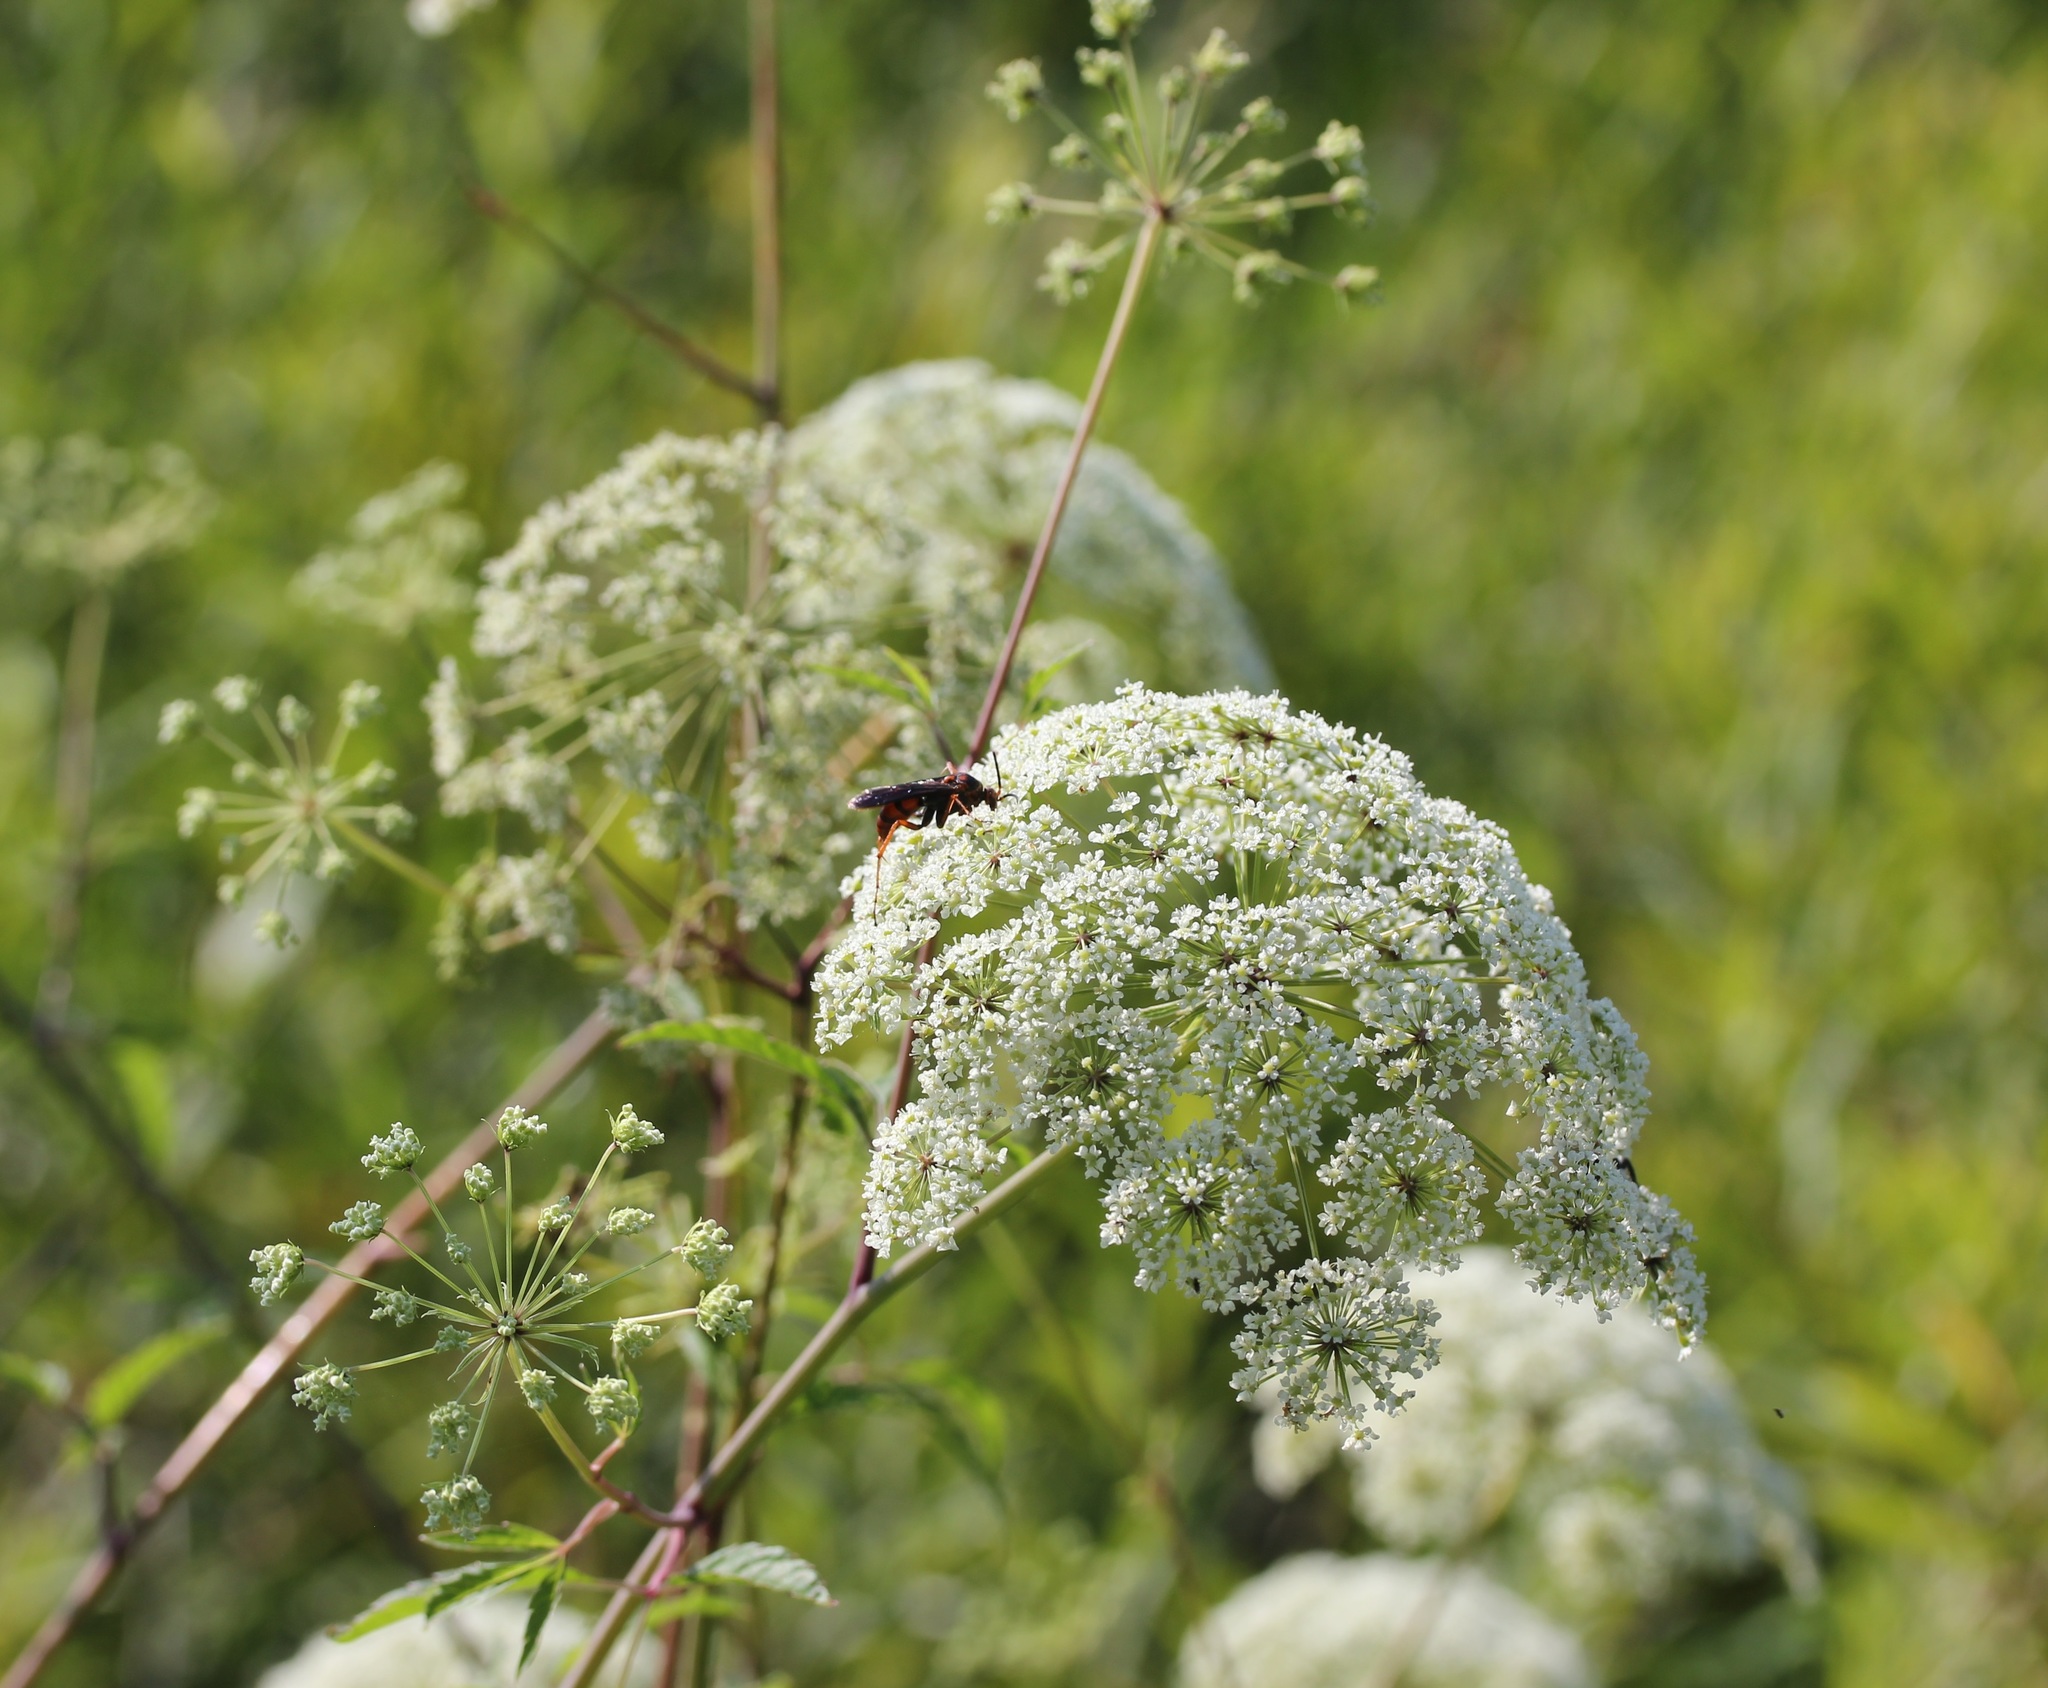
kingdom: Plantae
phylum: Tracheophyta
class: Magnoliopsida
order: Apiales
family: Apiaceae
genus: Cicuta
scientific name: Cicuta maculata
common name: Spotted cowbane
